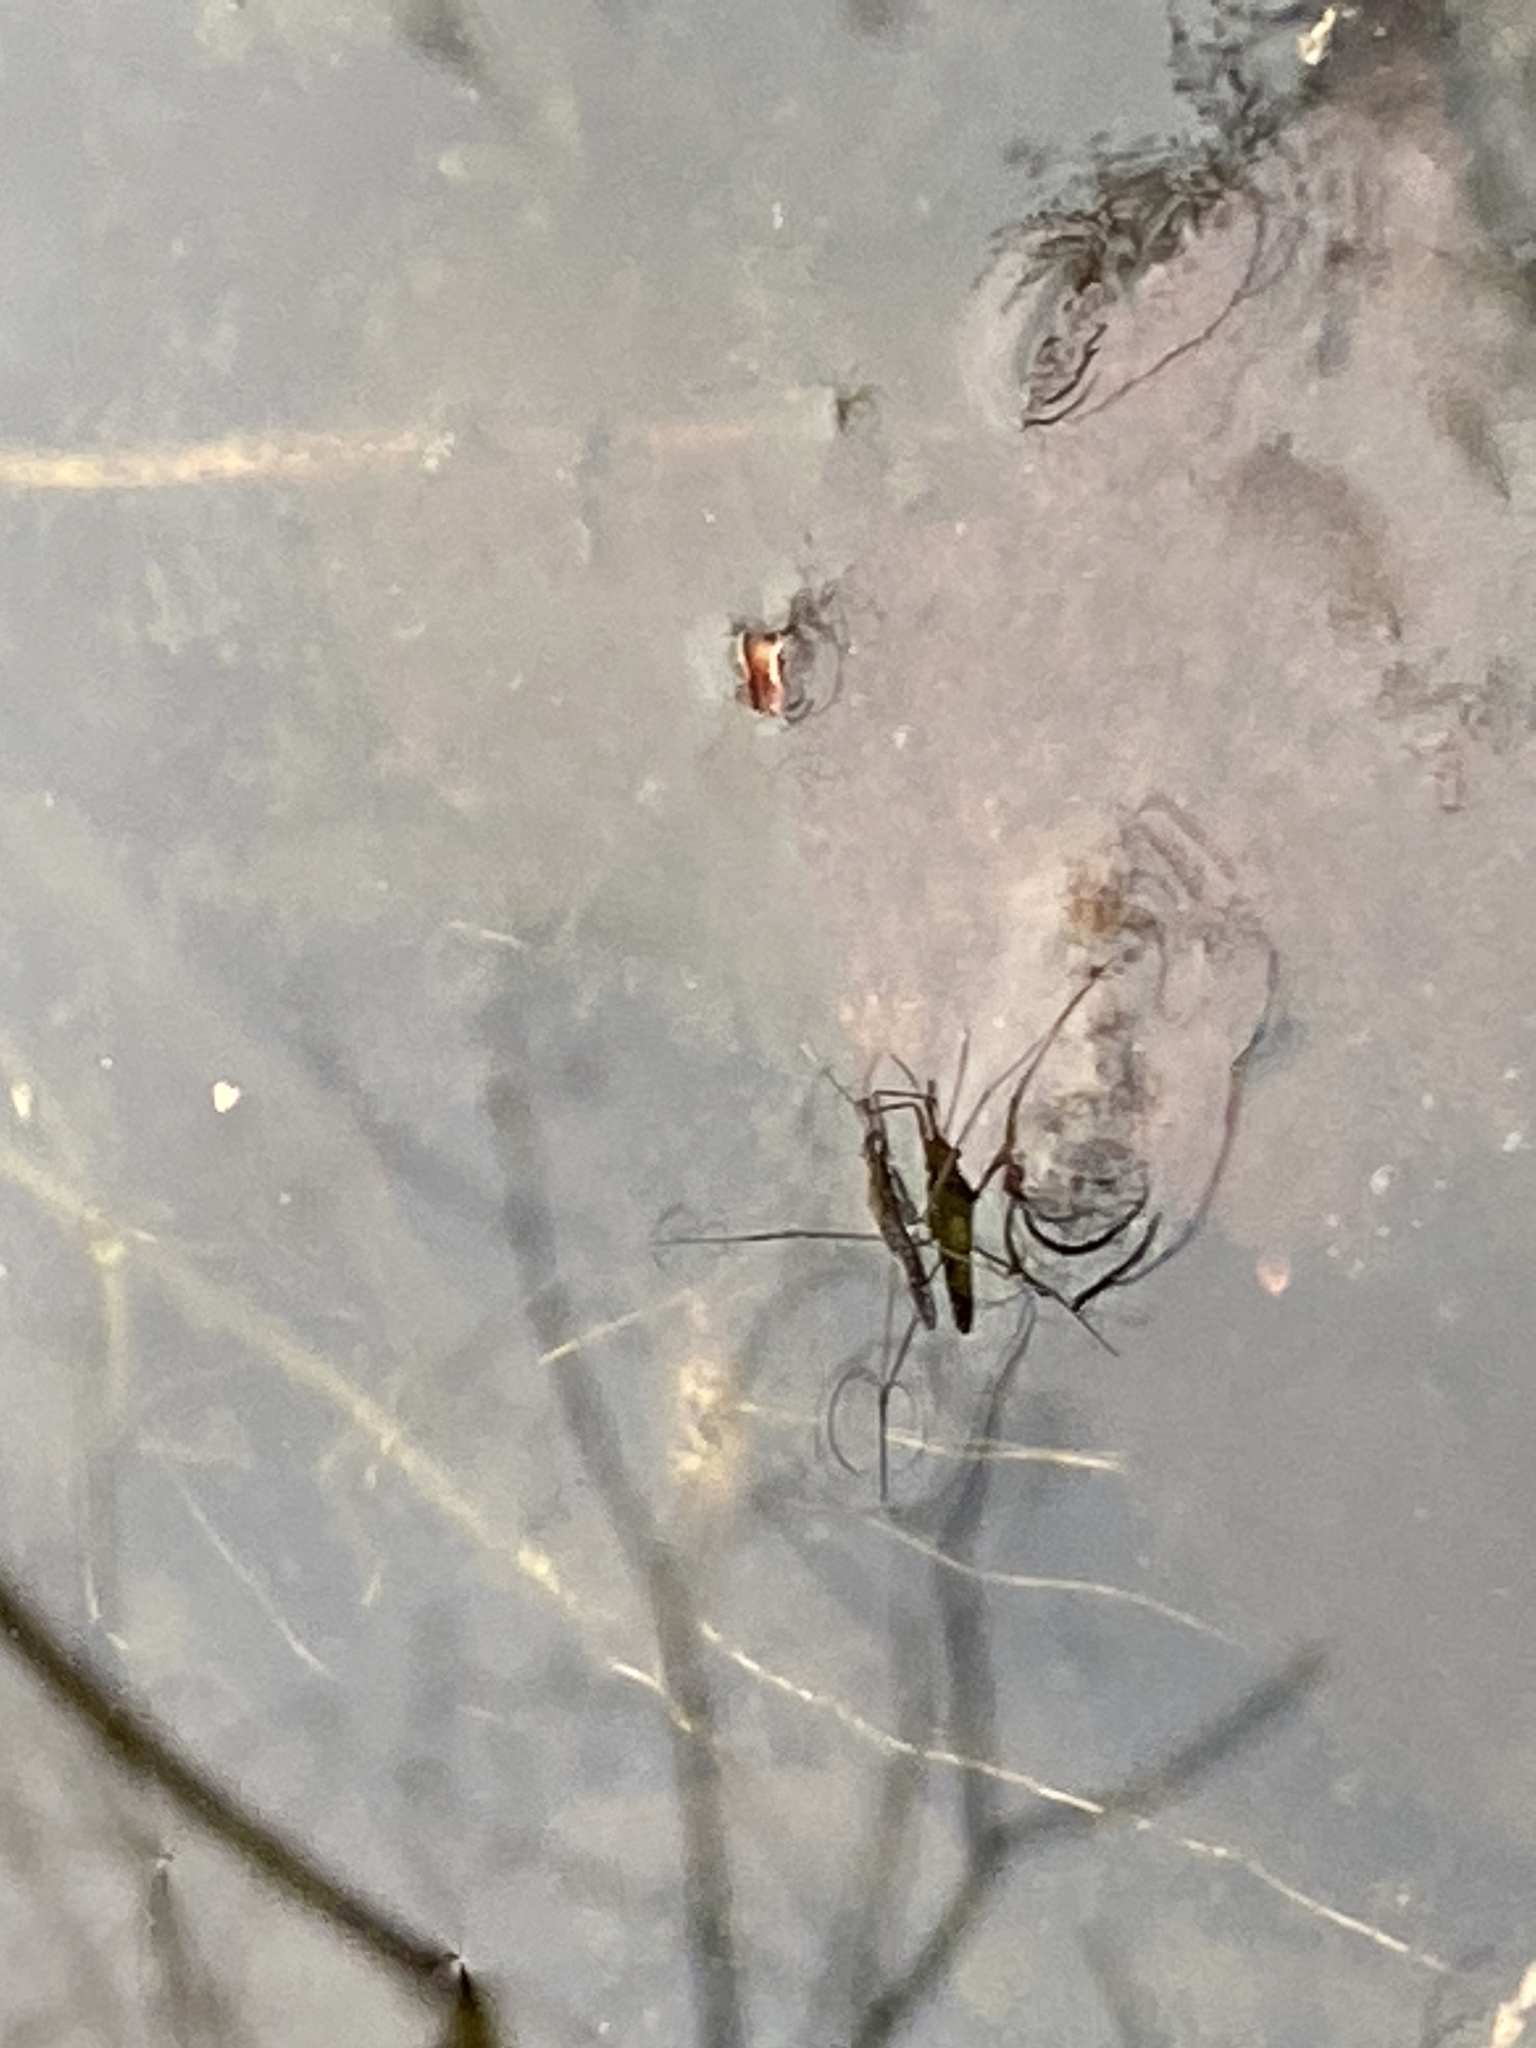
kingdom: Animalia
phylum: Arthropoda
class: Insecta
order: Hemiptera
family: Gerridae
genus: Aquarius
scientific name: Aquarius
